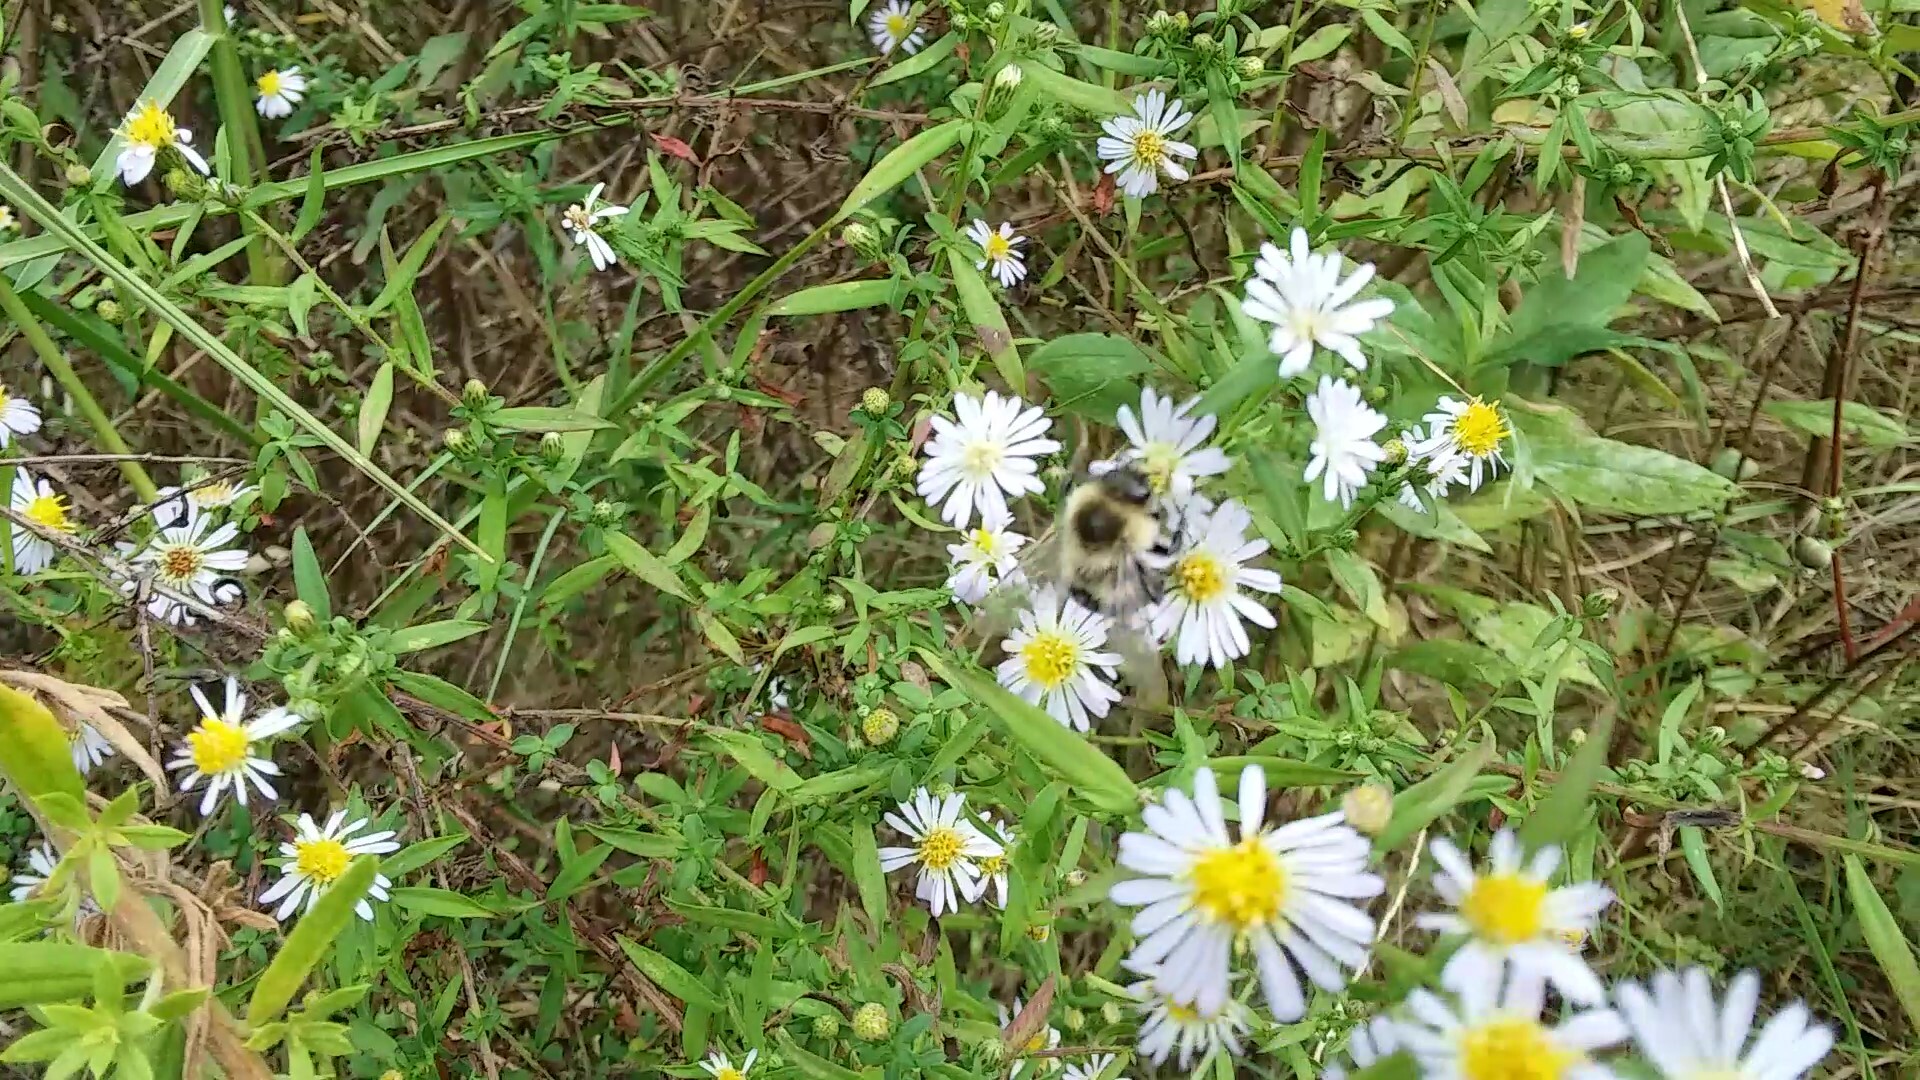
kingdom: Animalia
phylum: Arthropoda
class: Insecta
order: Hymenoptera
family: Apidae
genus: Bombus
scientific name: Bombus impatiens
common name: Common eastern bumble bee
